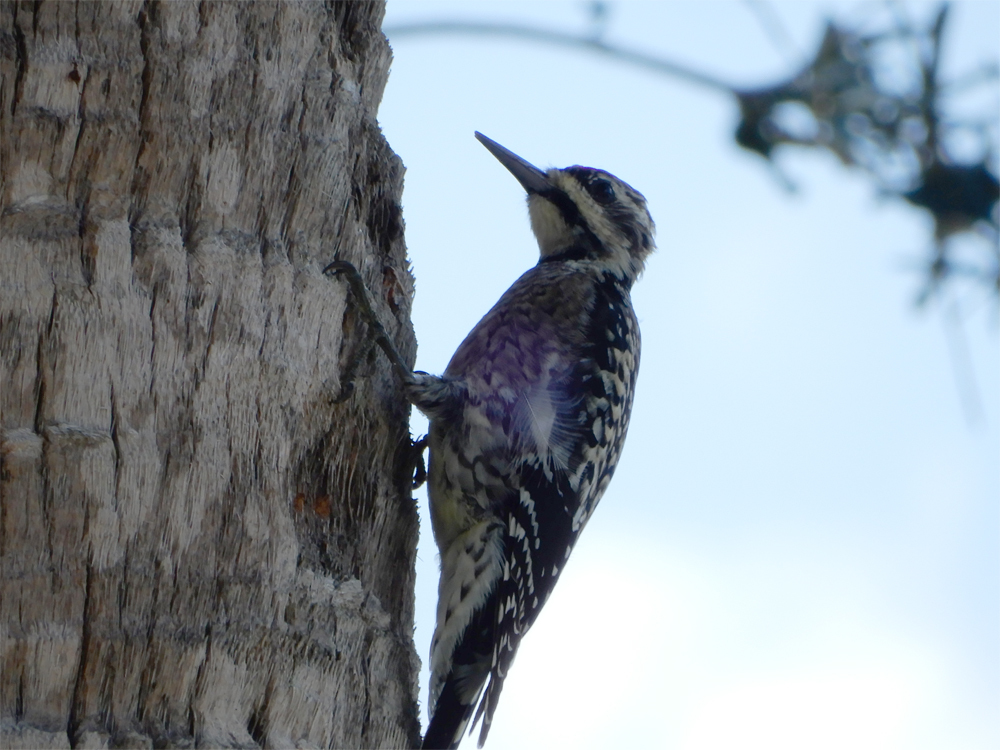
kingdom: Animalia
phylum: Chordata
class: Aves
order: Piciformes
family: Picidae
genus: Sphyrapicus
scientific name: Sphyrapicus varius
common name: Yellow-bellied sapsucker
